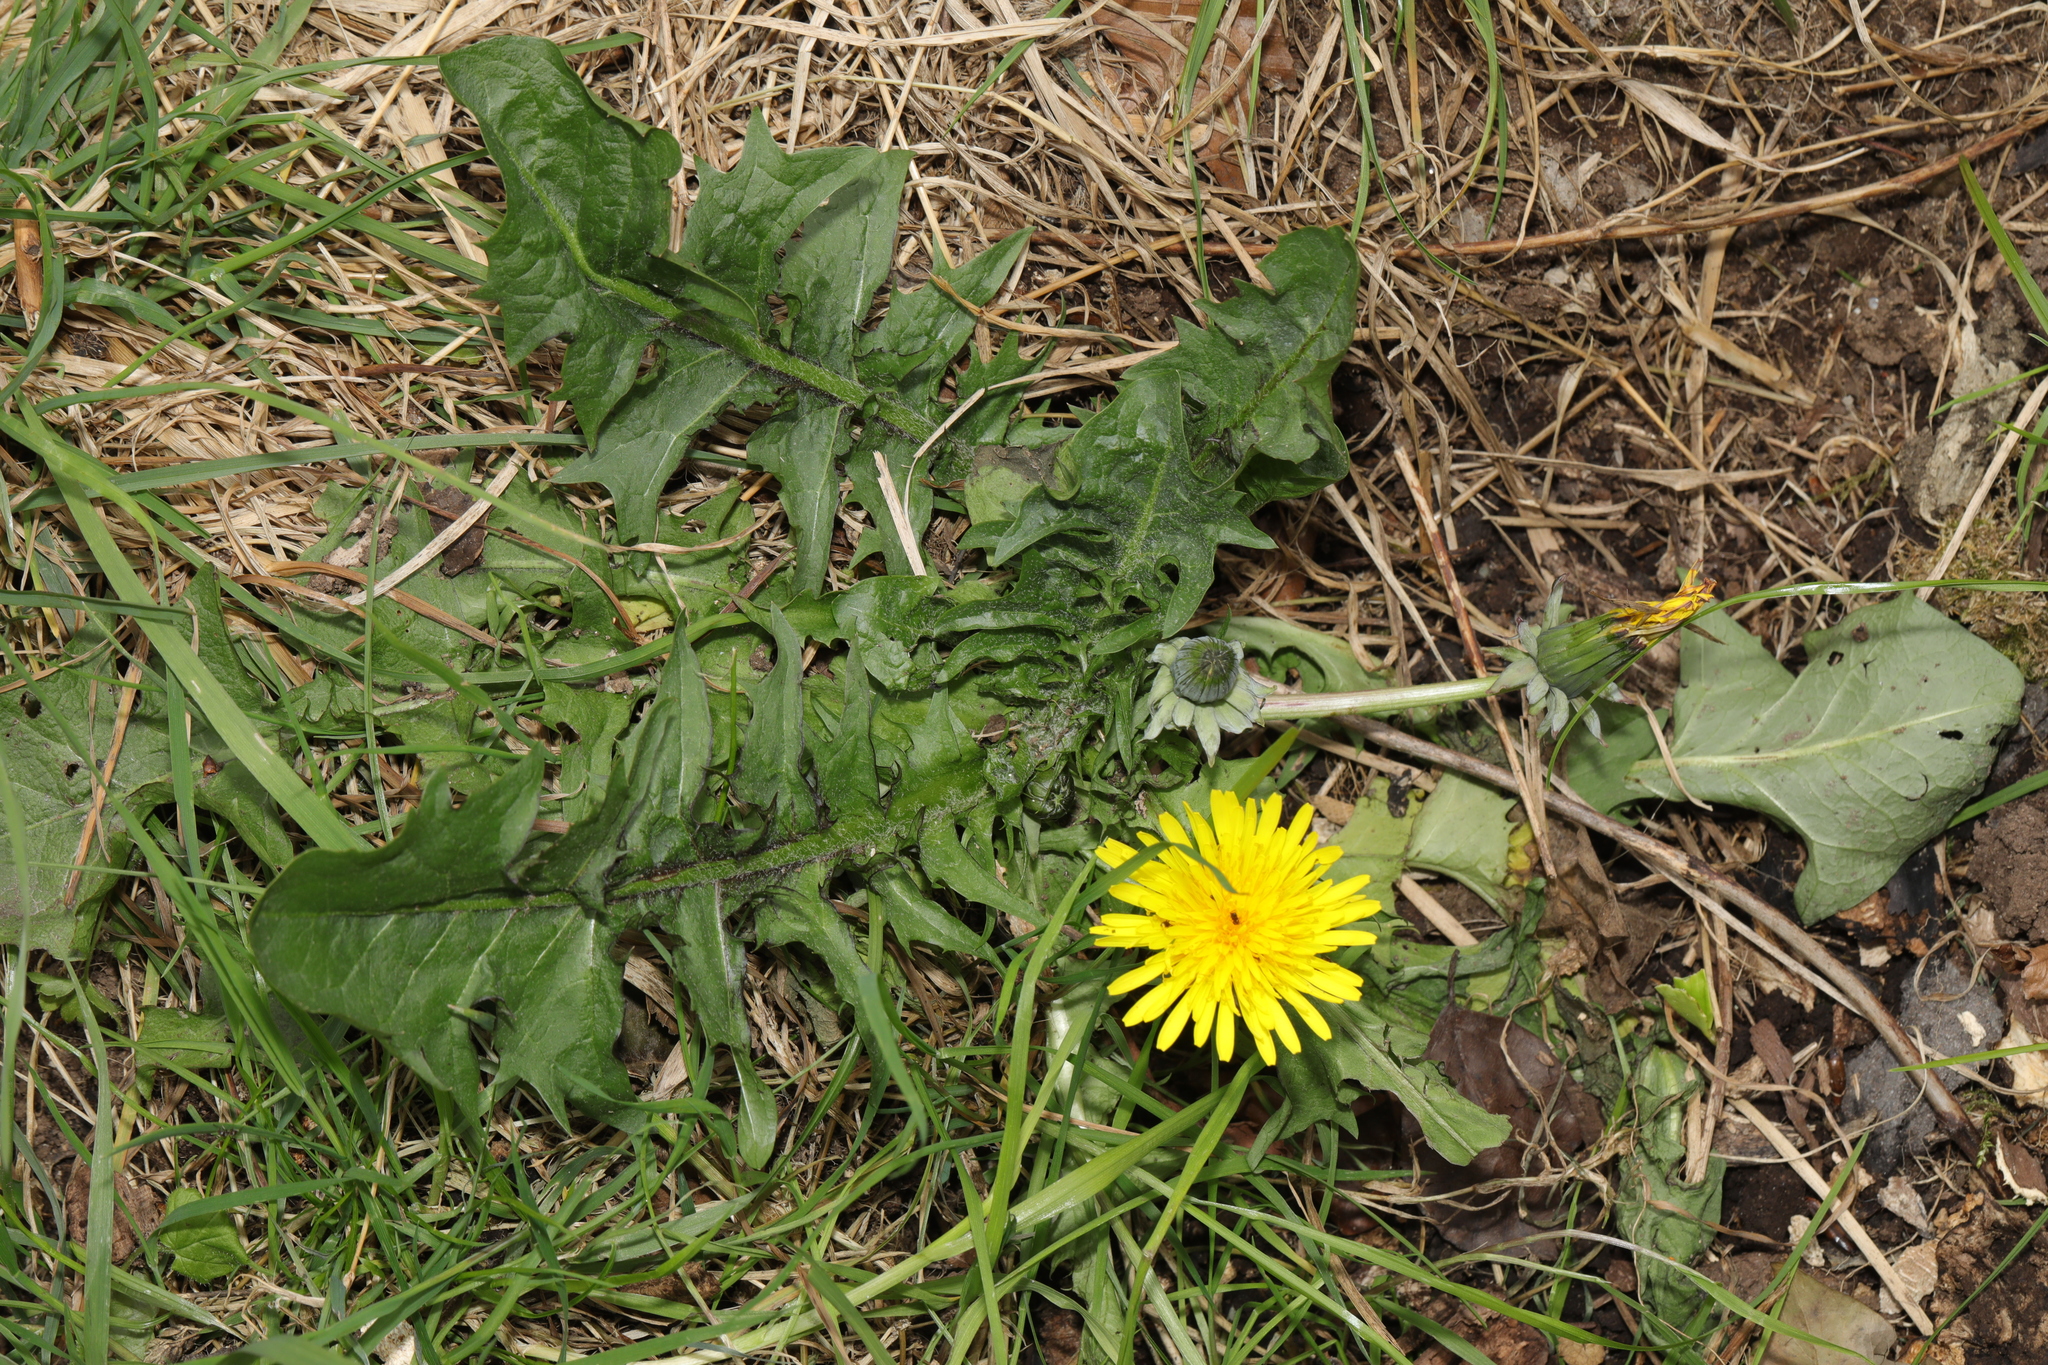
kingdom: Plantae
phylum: Tracheophyta
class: Magnoliopsida
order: Asterales
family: Asteraceae
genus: Taraxacum
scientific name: Taraxacum officinale
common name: Common dandelion
